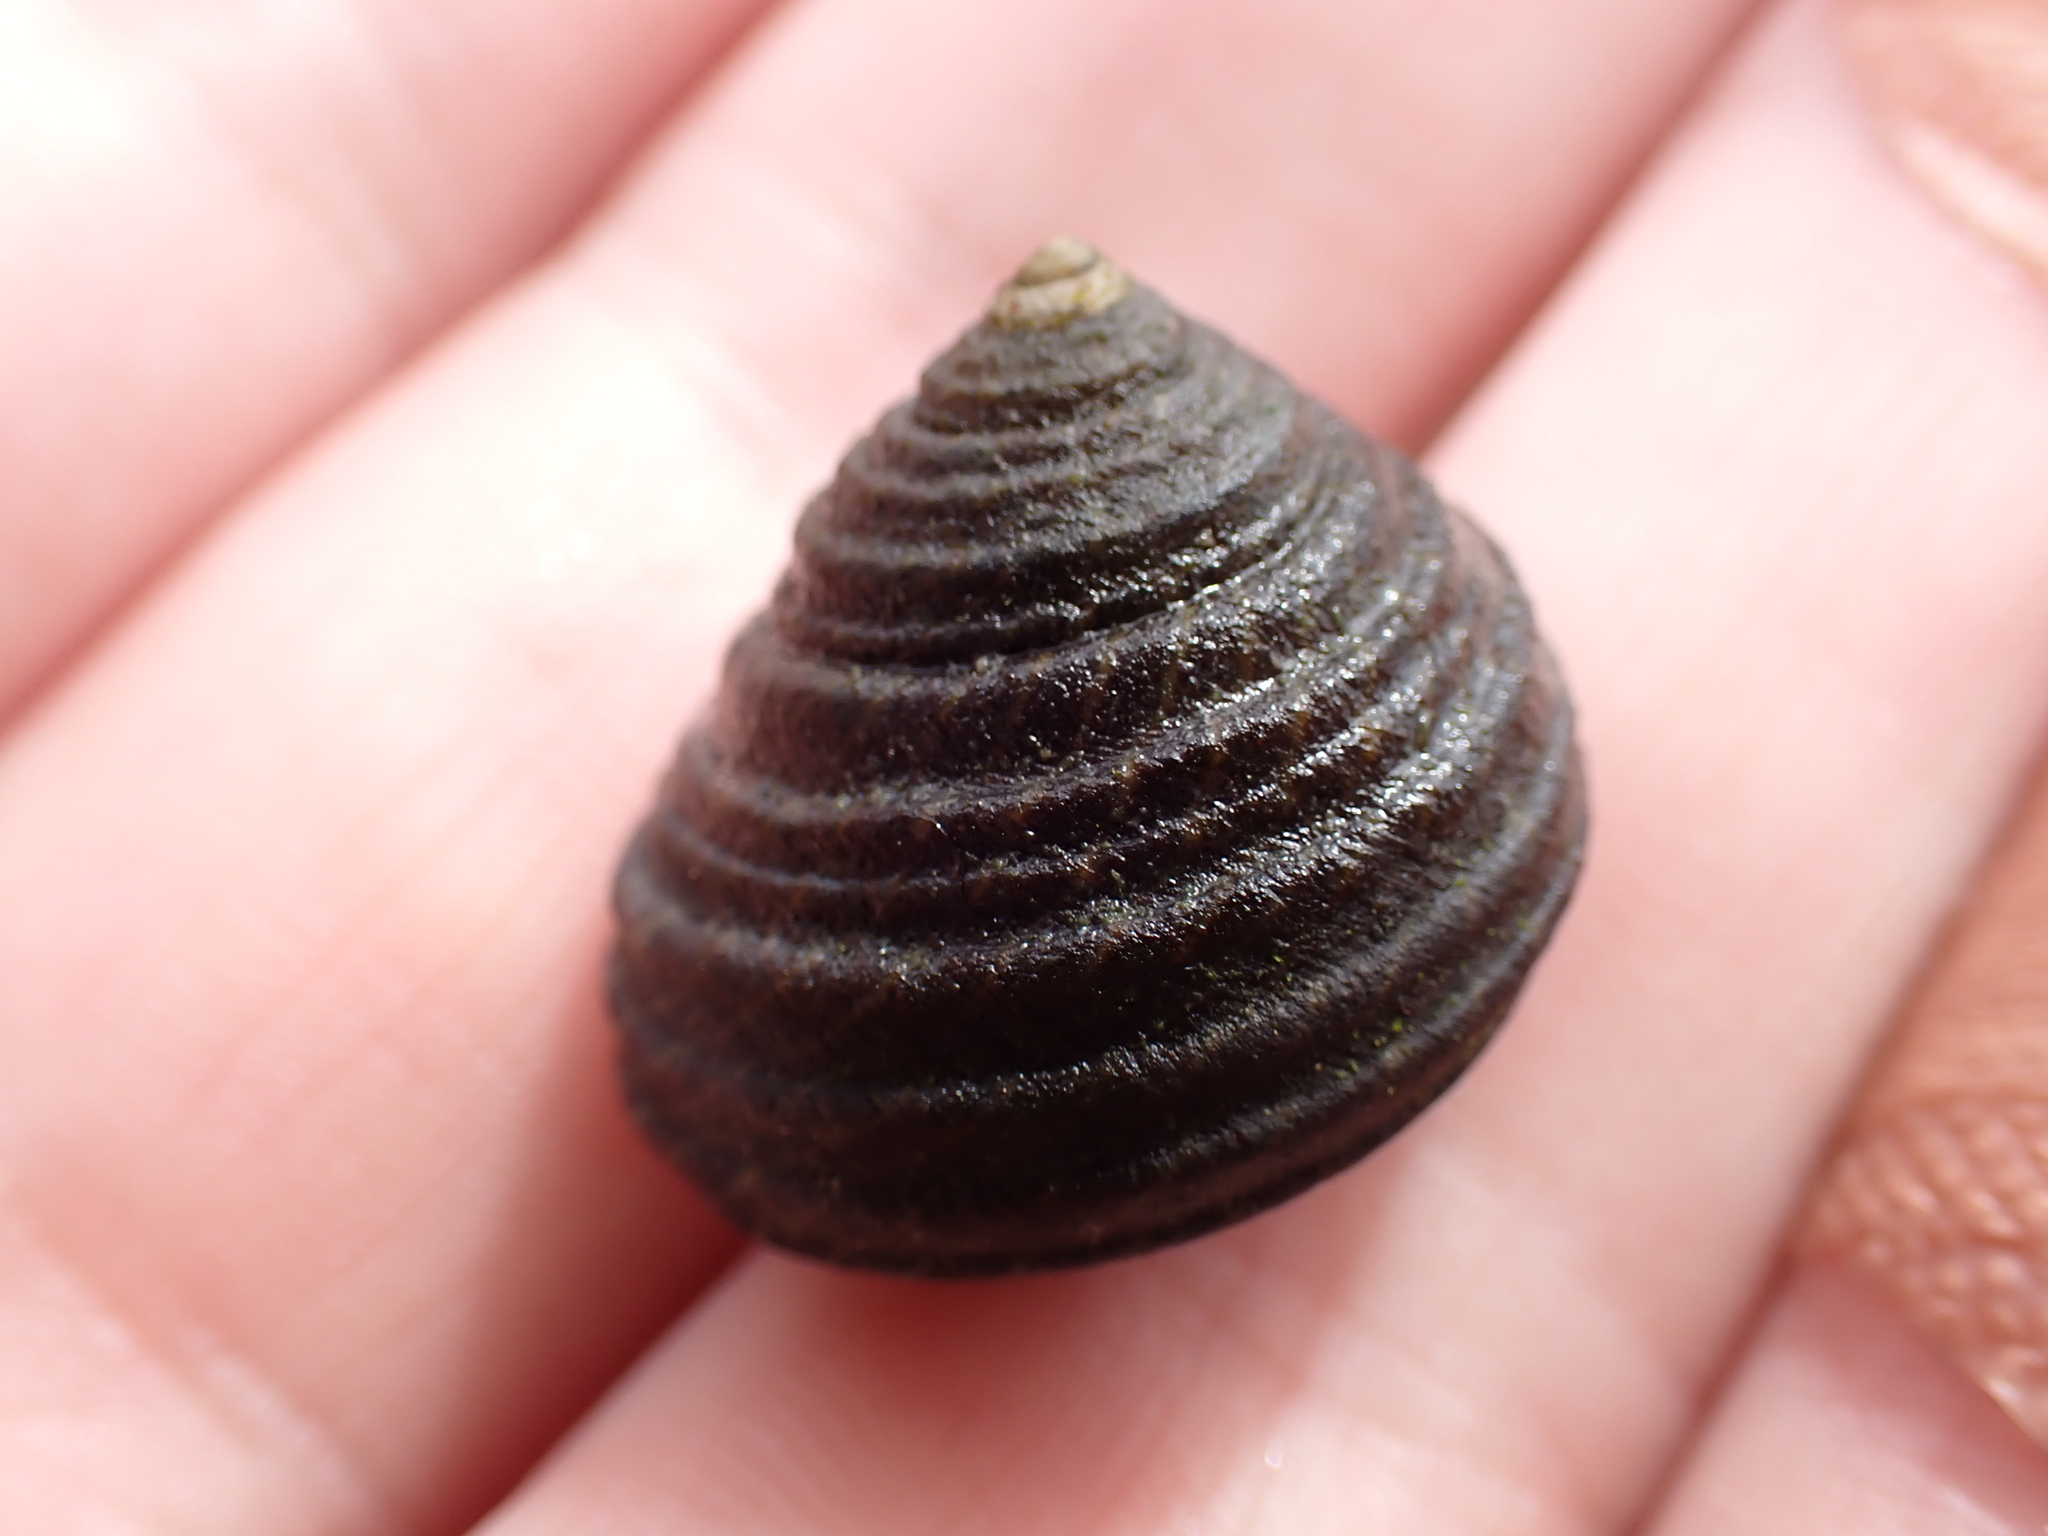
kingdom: Animalia
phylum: Mollusca
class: Gastropoda
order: Trochida
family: Trochidae
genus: Austrocochlea
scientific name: Austrocochlea porcata
